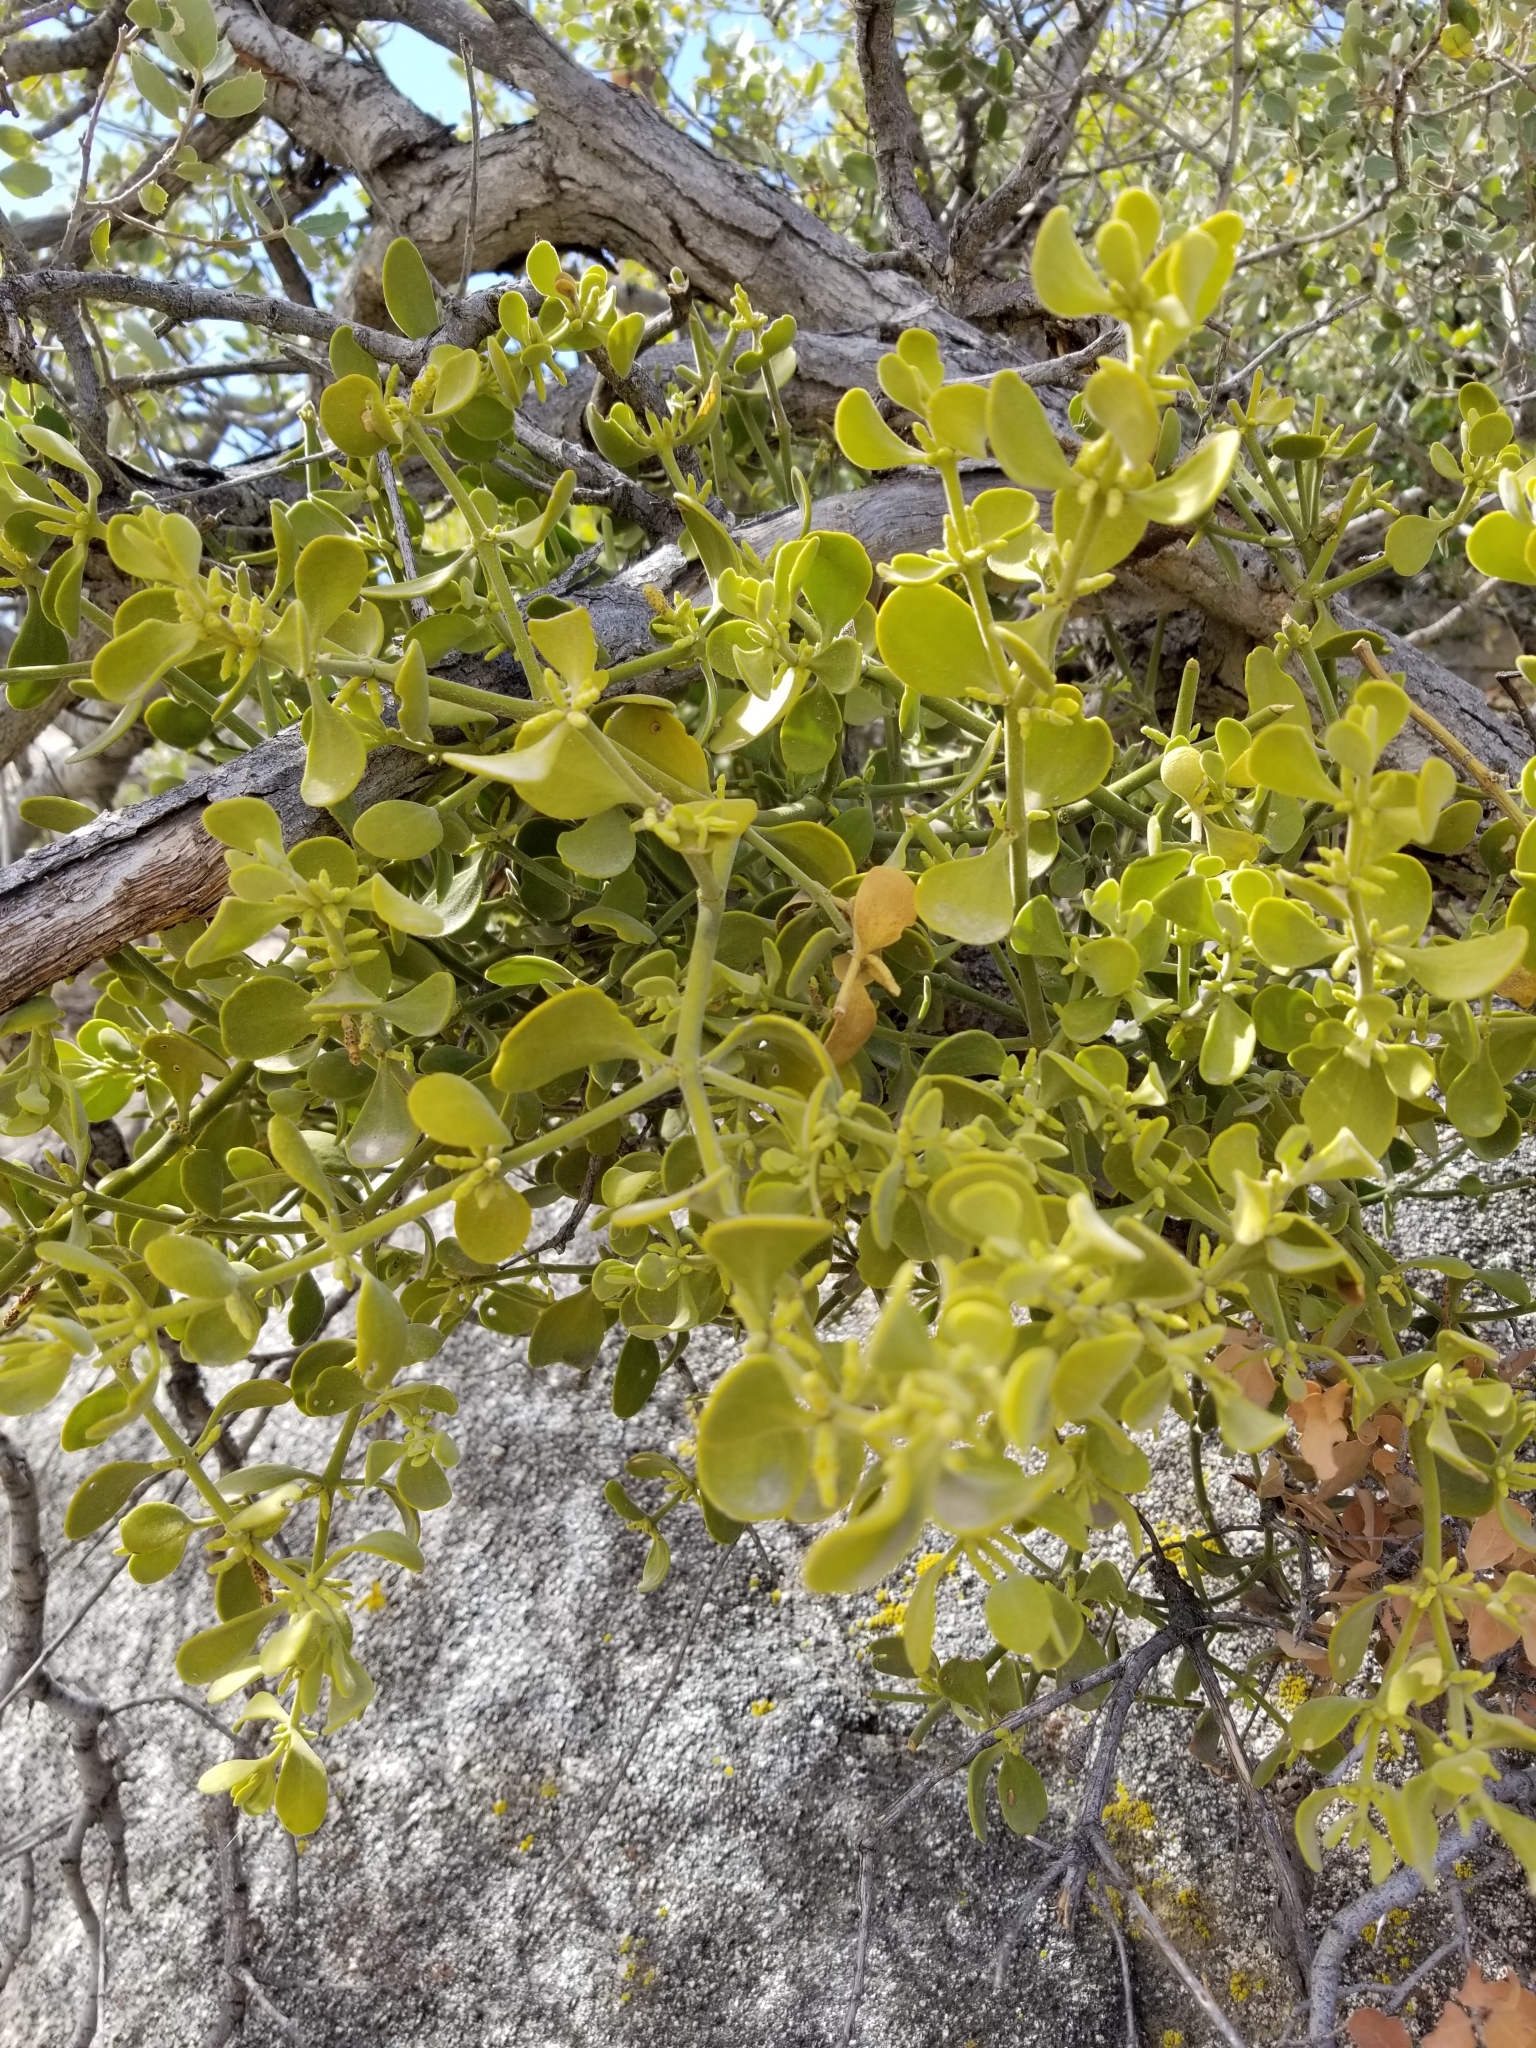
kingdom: Plantae
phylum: Tracheophyta
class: Magnoliopsida
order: Santalales
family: Viscaceae
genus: Phoradendron
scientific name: Phoradendron leucarpum
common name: Pacific mistletoe
